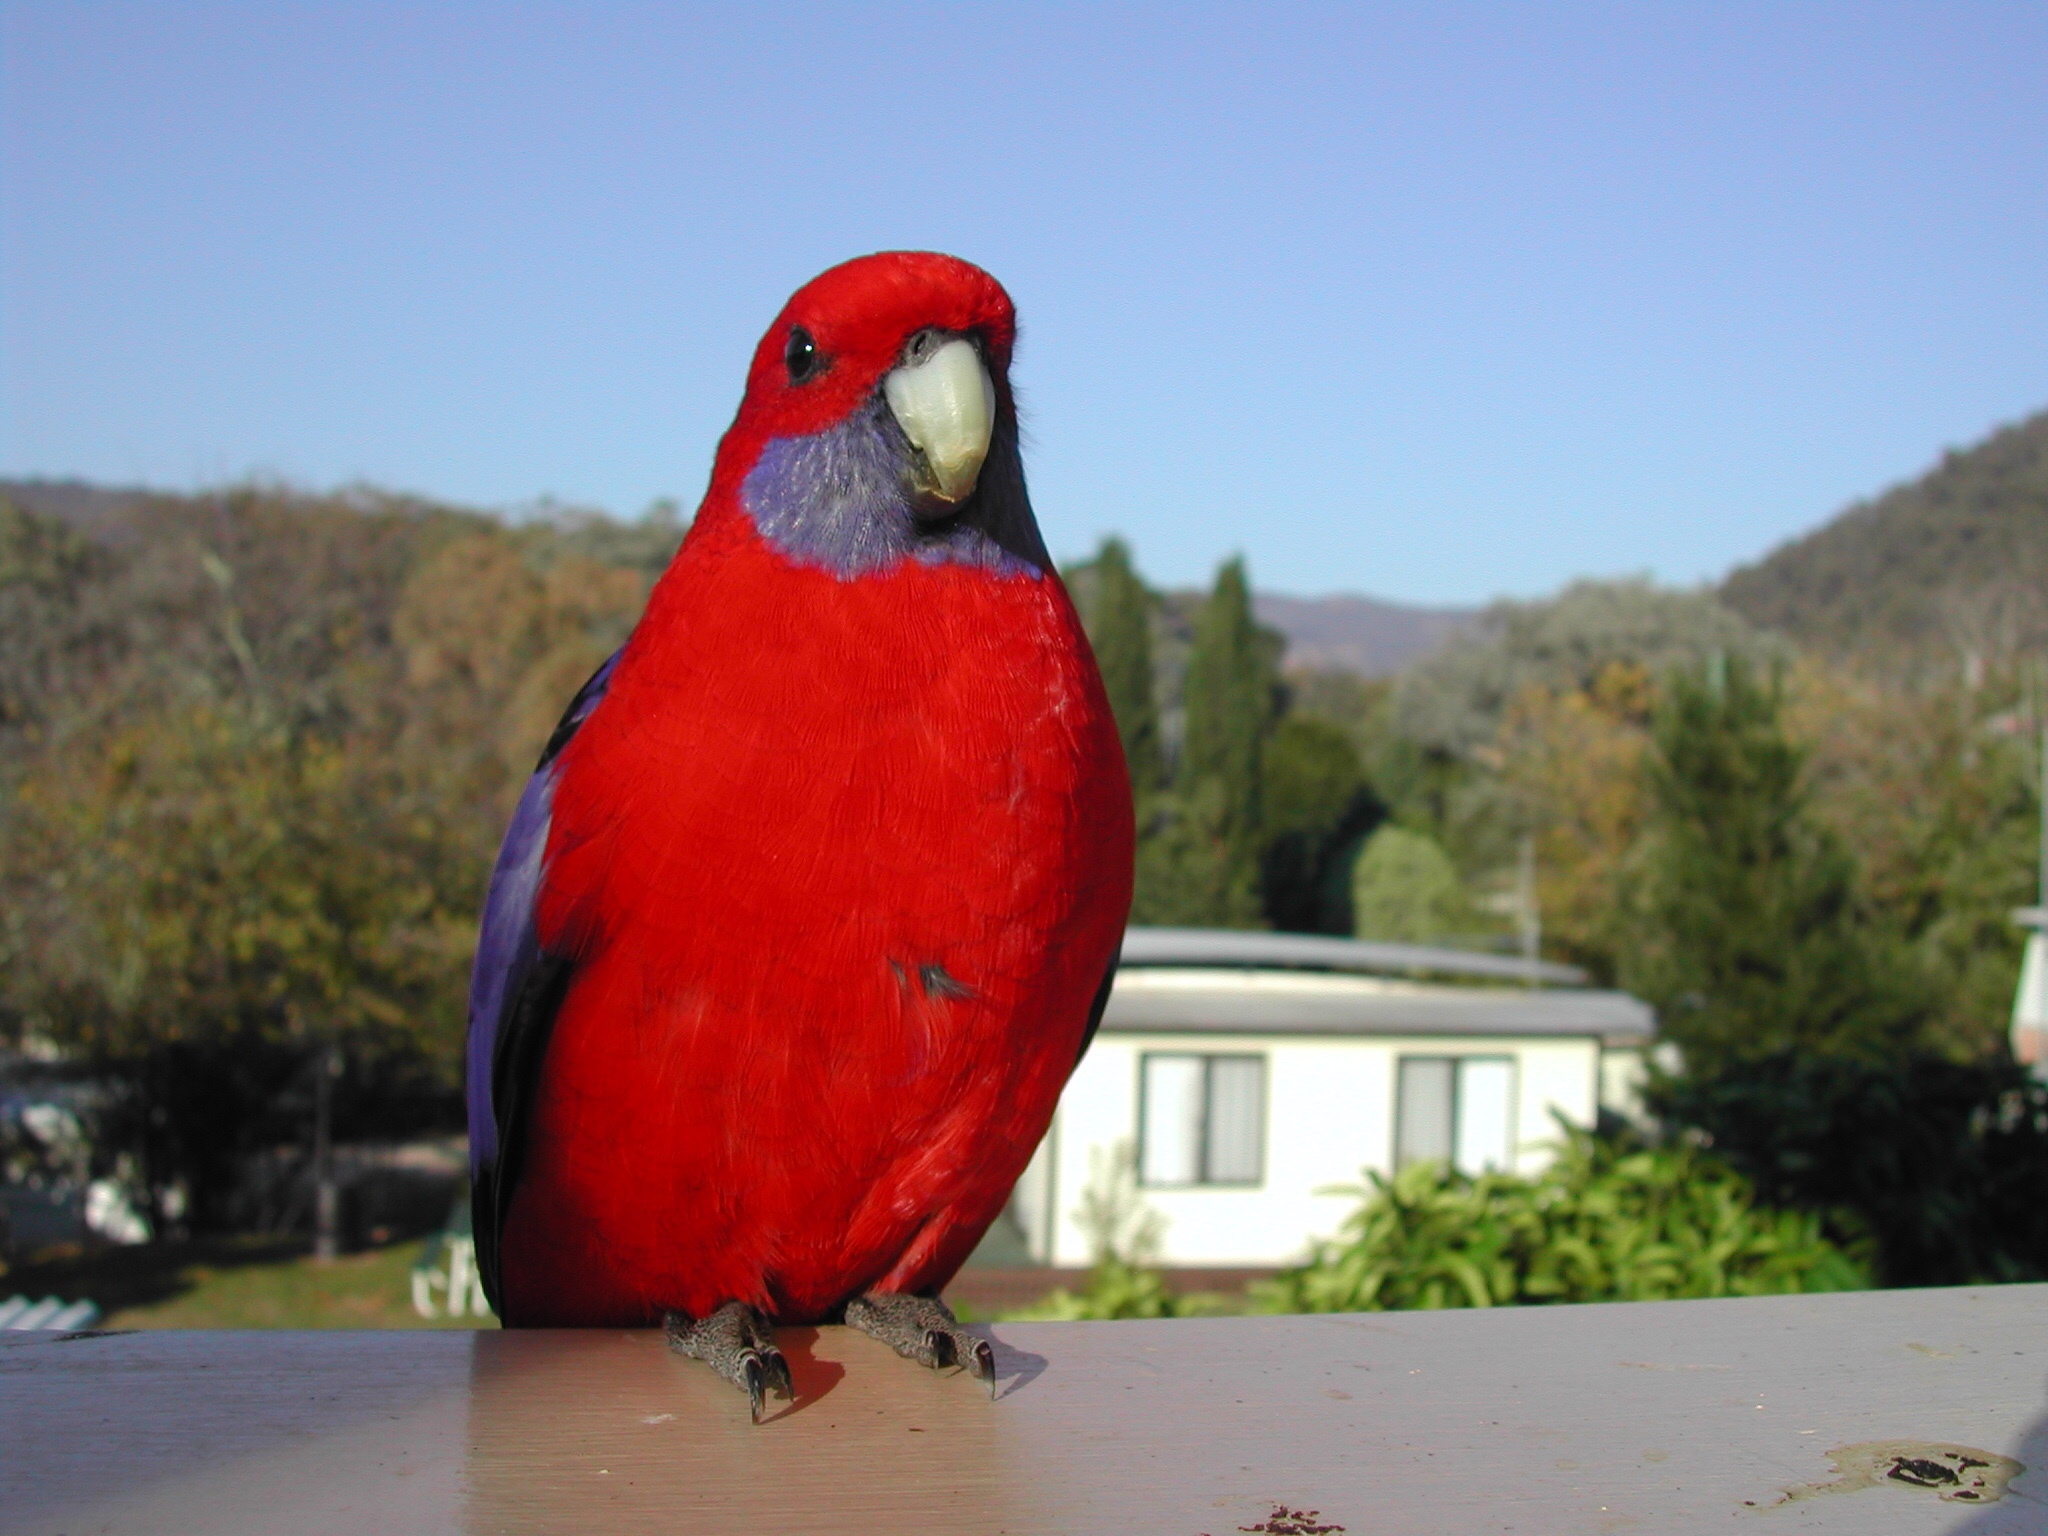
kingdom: Animalia
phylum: Chordata
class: Aves
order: Psittaciformes
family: Psittacidae
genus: Platycercus
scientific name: Platycercus elegans
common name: Crimson rosella
